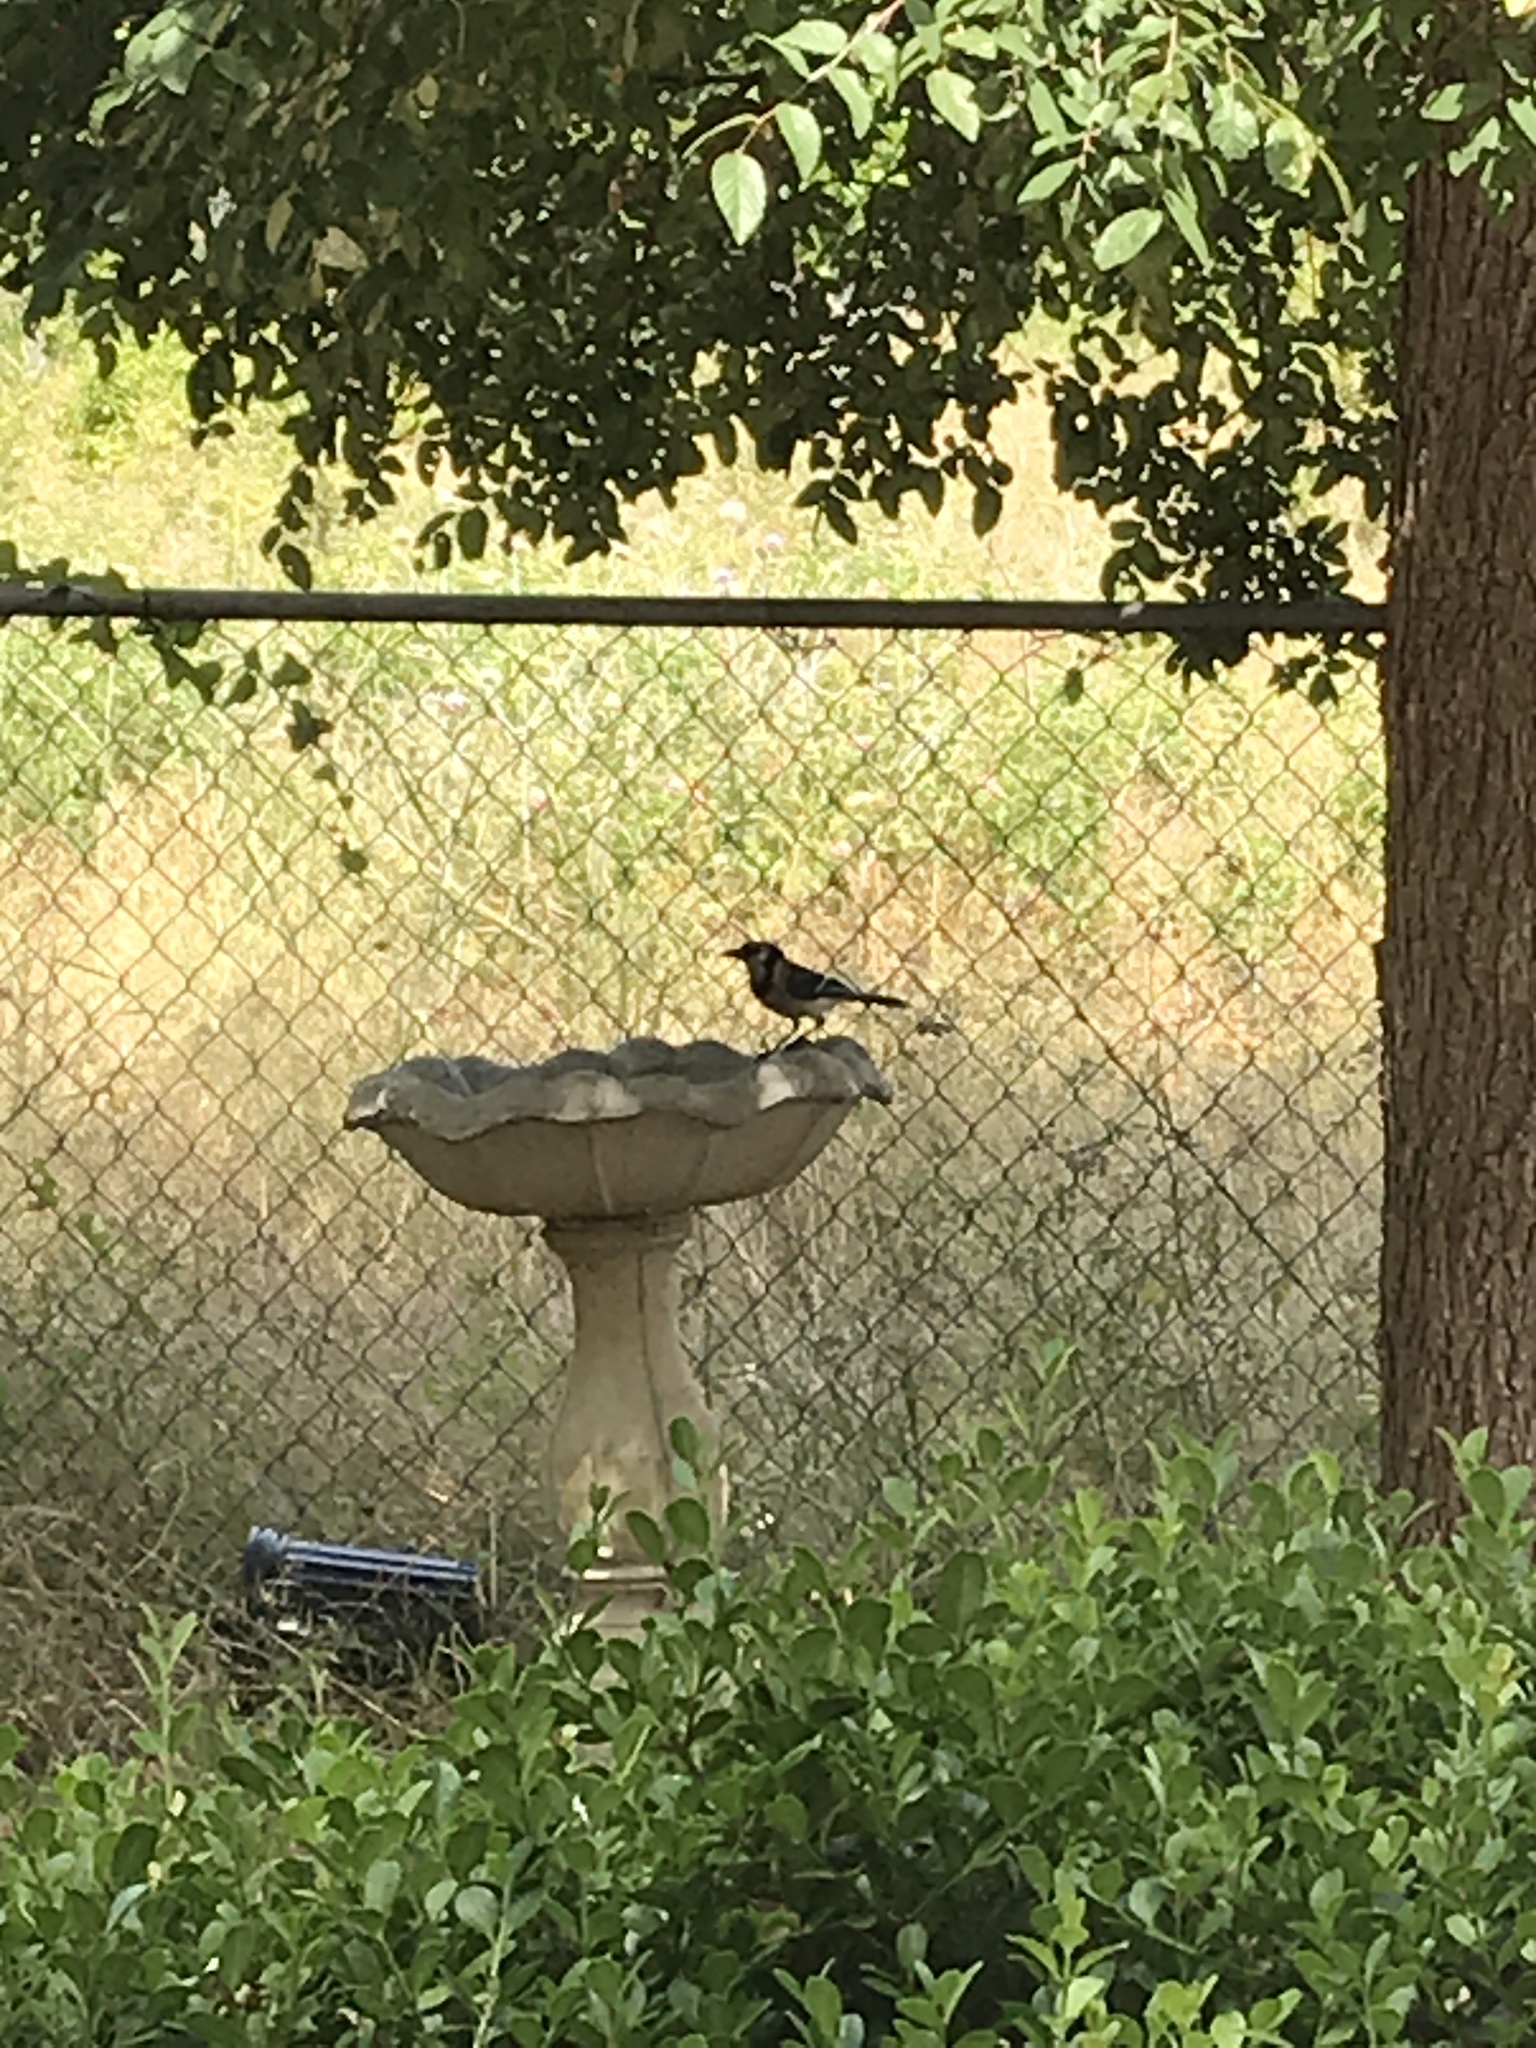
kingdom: Animalia
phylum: Chordata
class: Aves
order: Passeriformes
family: Corvidae
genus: Cyanocitta
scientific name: Cyanocitta cristata
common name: Blue jay
